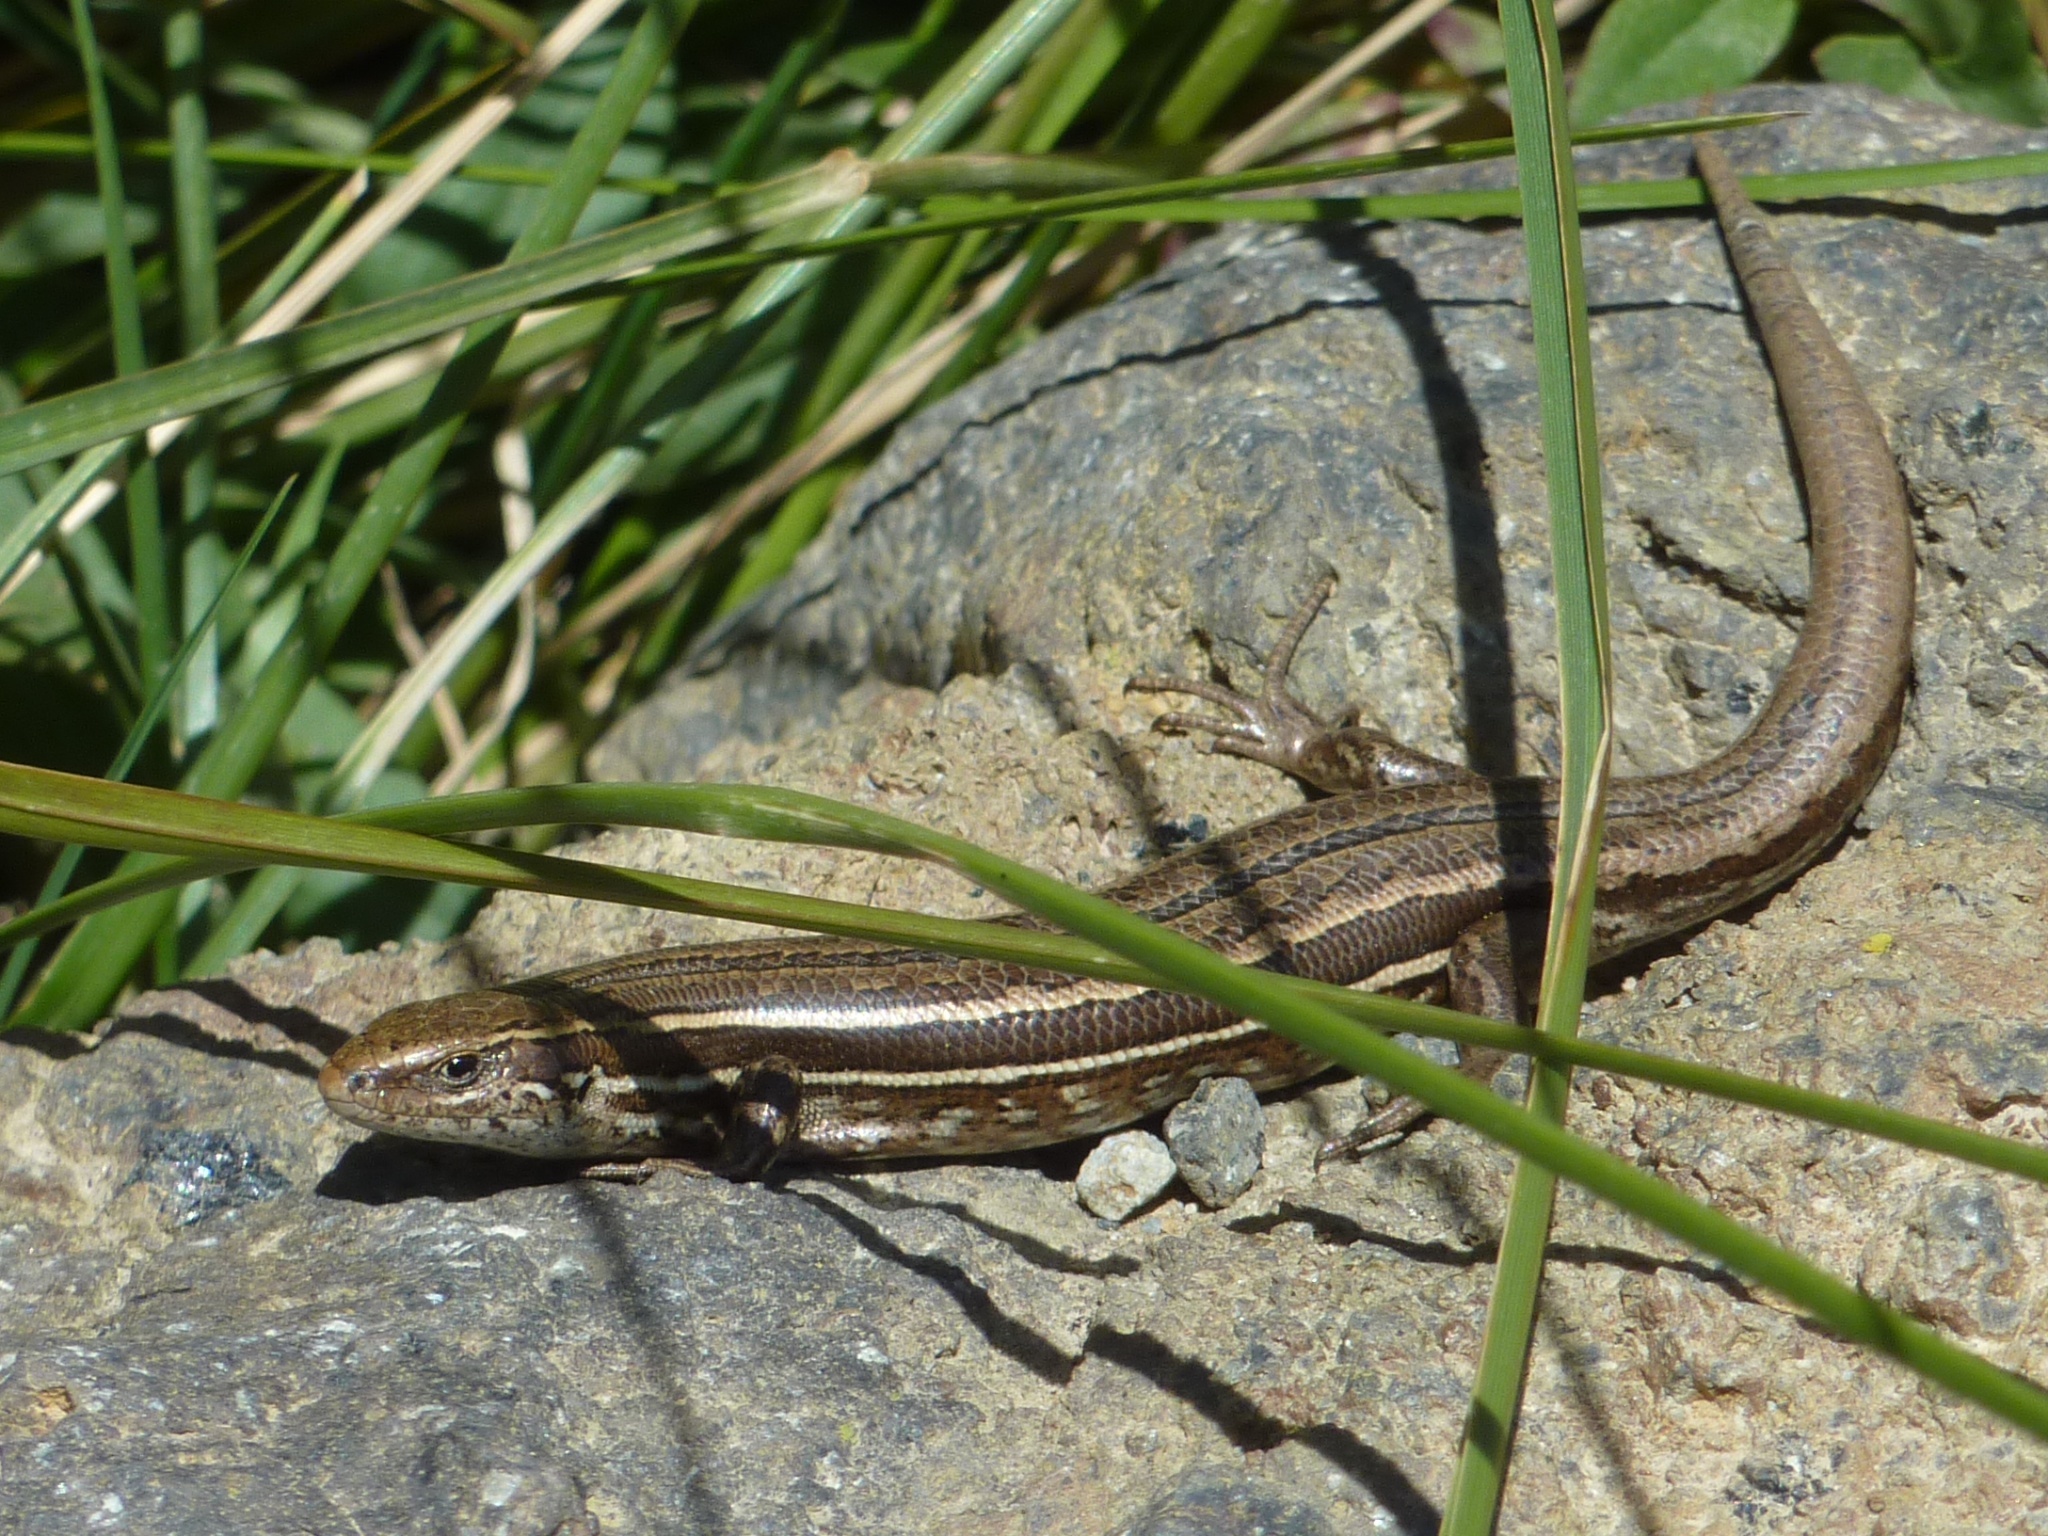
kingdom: Animalia
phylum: Chordata
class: Squamata
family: Scincidae
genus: Oligosoma
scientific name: Oligosoma polychroma
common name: Common new zealand skink
